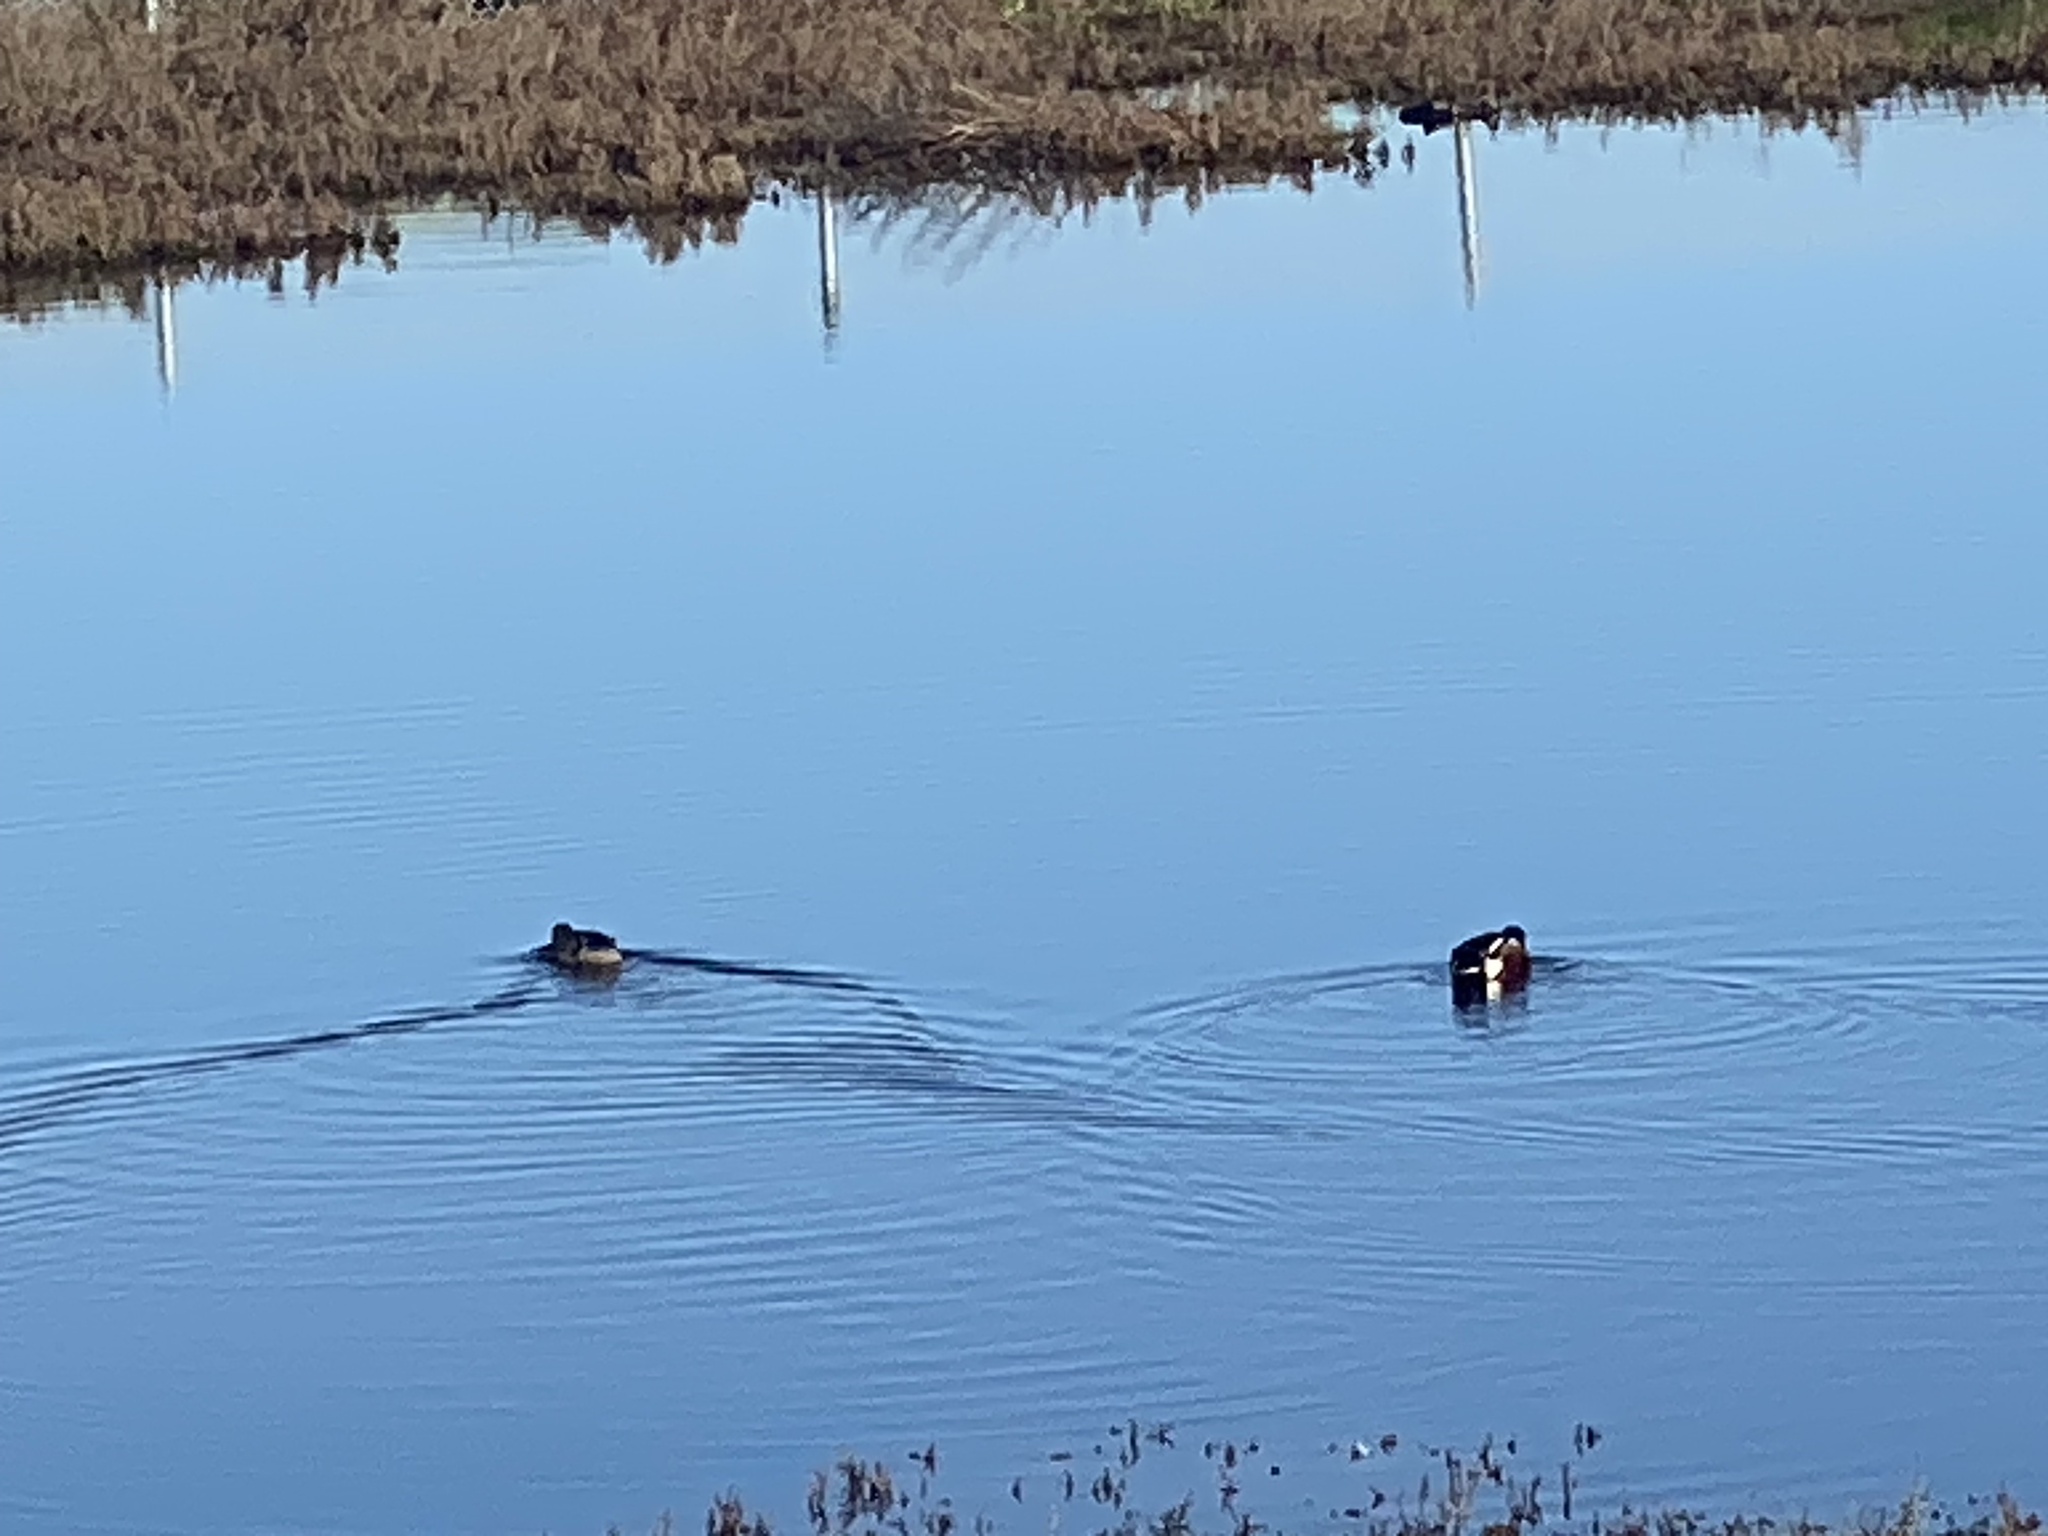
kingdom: Animalia
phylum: Chordata
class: Aves
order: Anseriformes
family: Anatidae
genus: Spatula
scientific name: Spatula clypeata
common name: Northern shoveler
